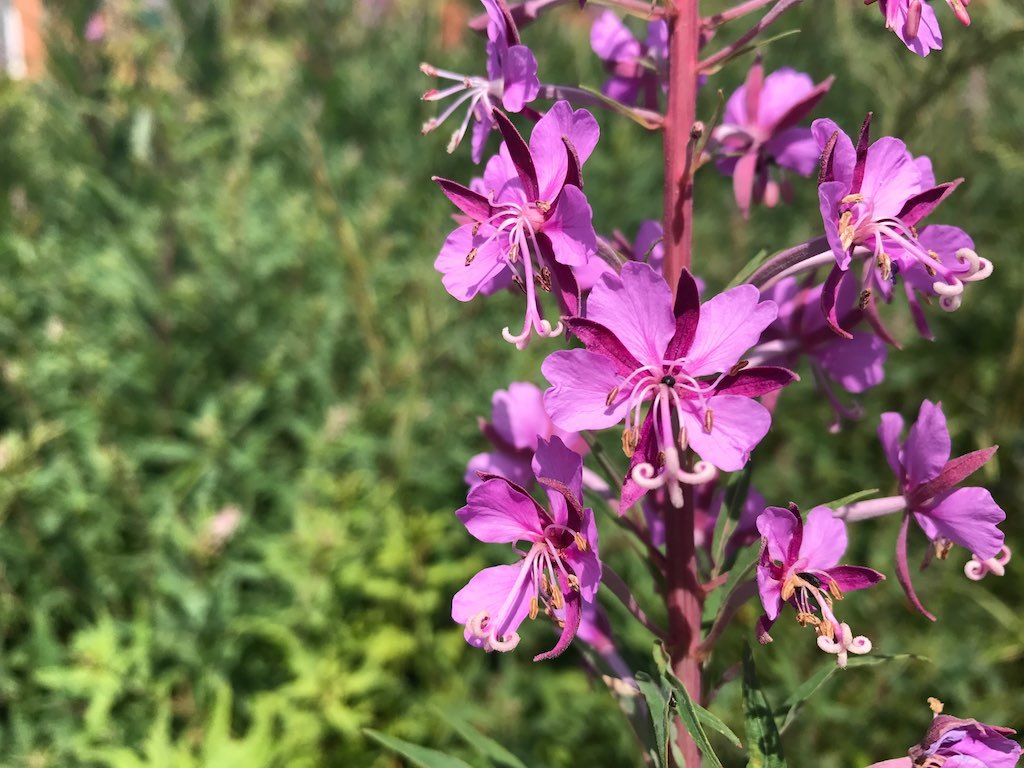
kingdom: Plantae
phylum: Tracheophyta
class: Magnoliopsida
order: Myrtales
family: Onagraceae
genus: Chamaenerion
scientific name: Chamaenerion angustifolium
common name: Fireweed
